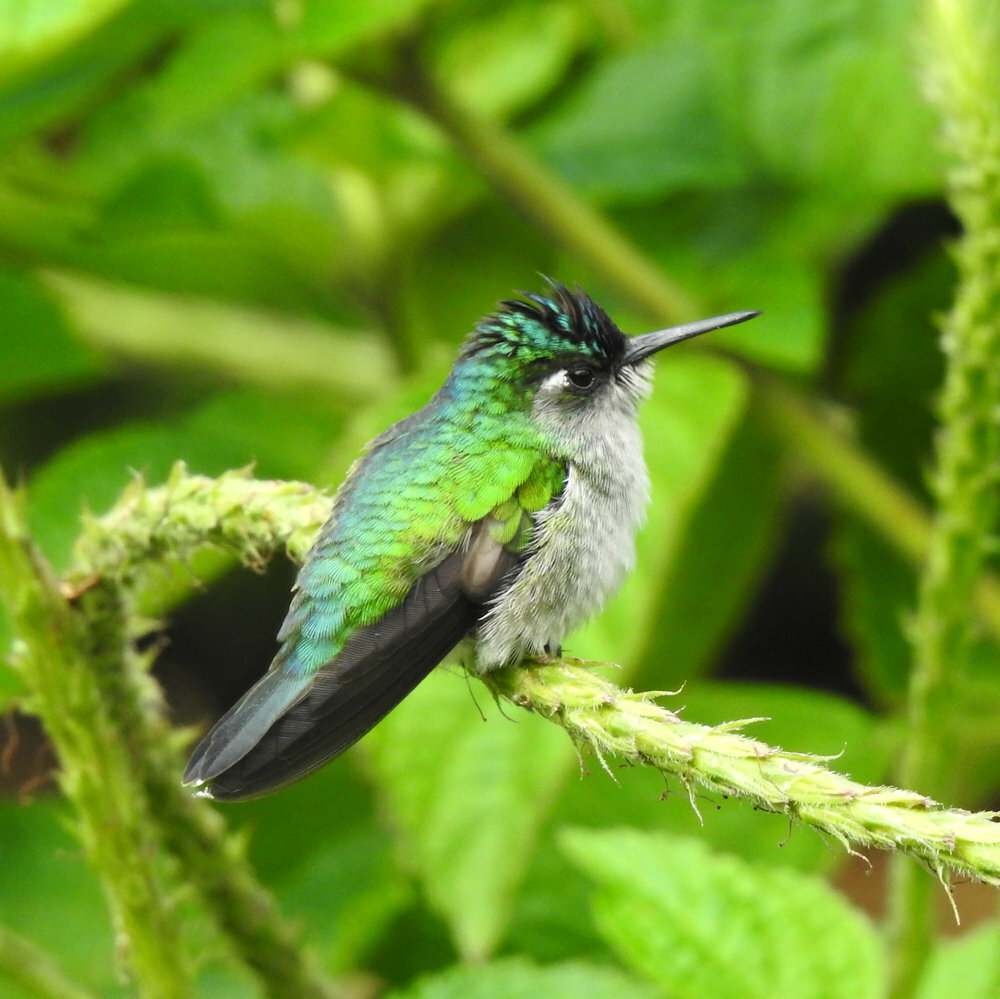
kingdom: Animalia
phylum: Chordata
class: Aves
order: Apodiformes
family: Trochilidae
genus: Klais
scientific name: Klais guimeti
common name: Violet-headed hummingbird
